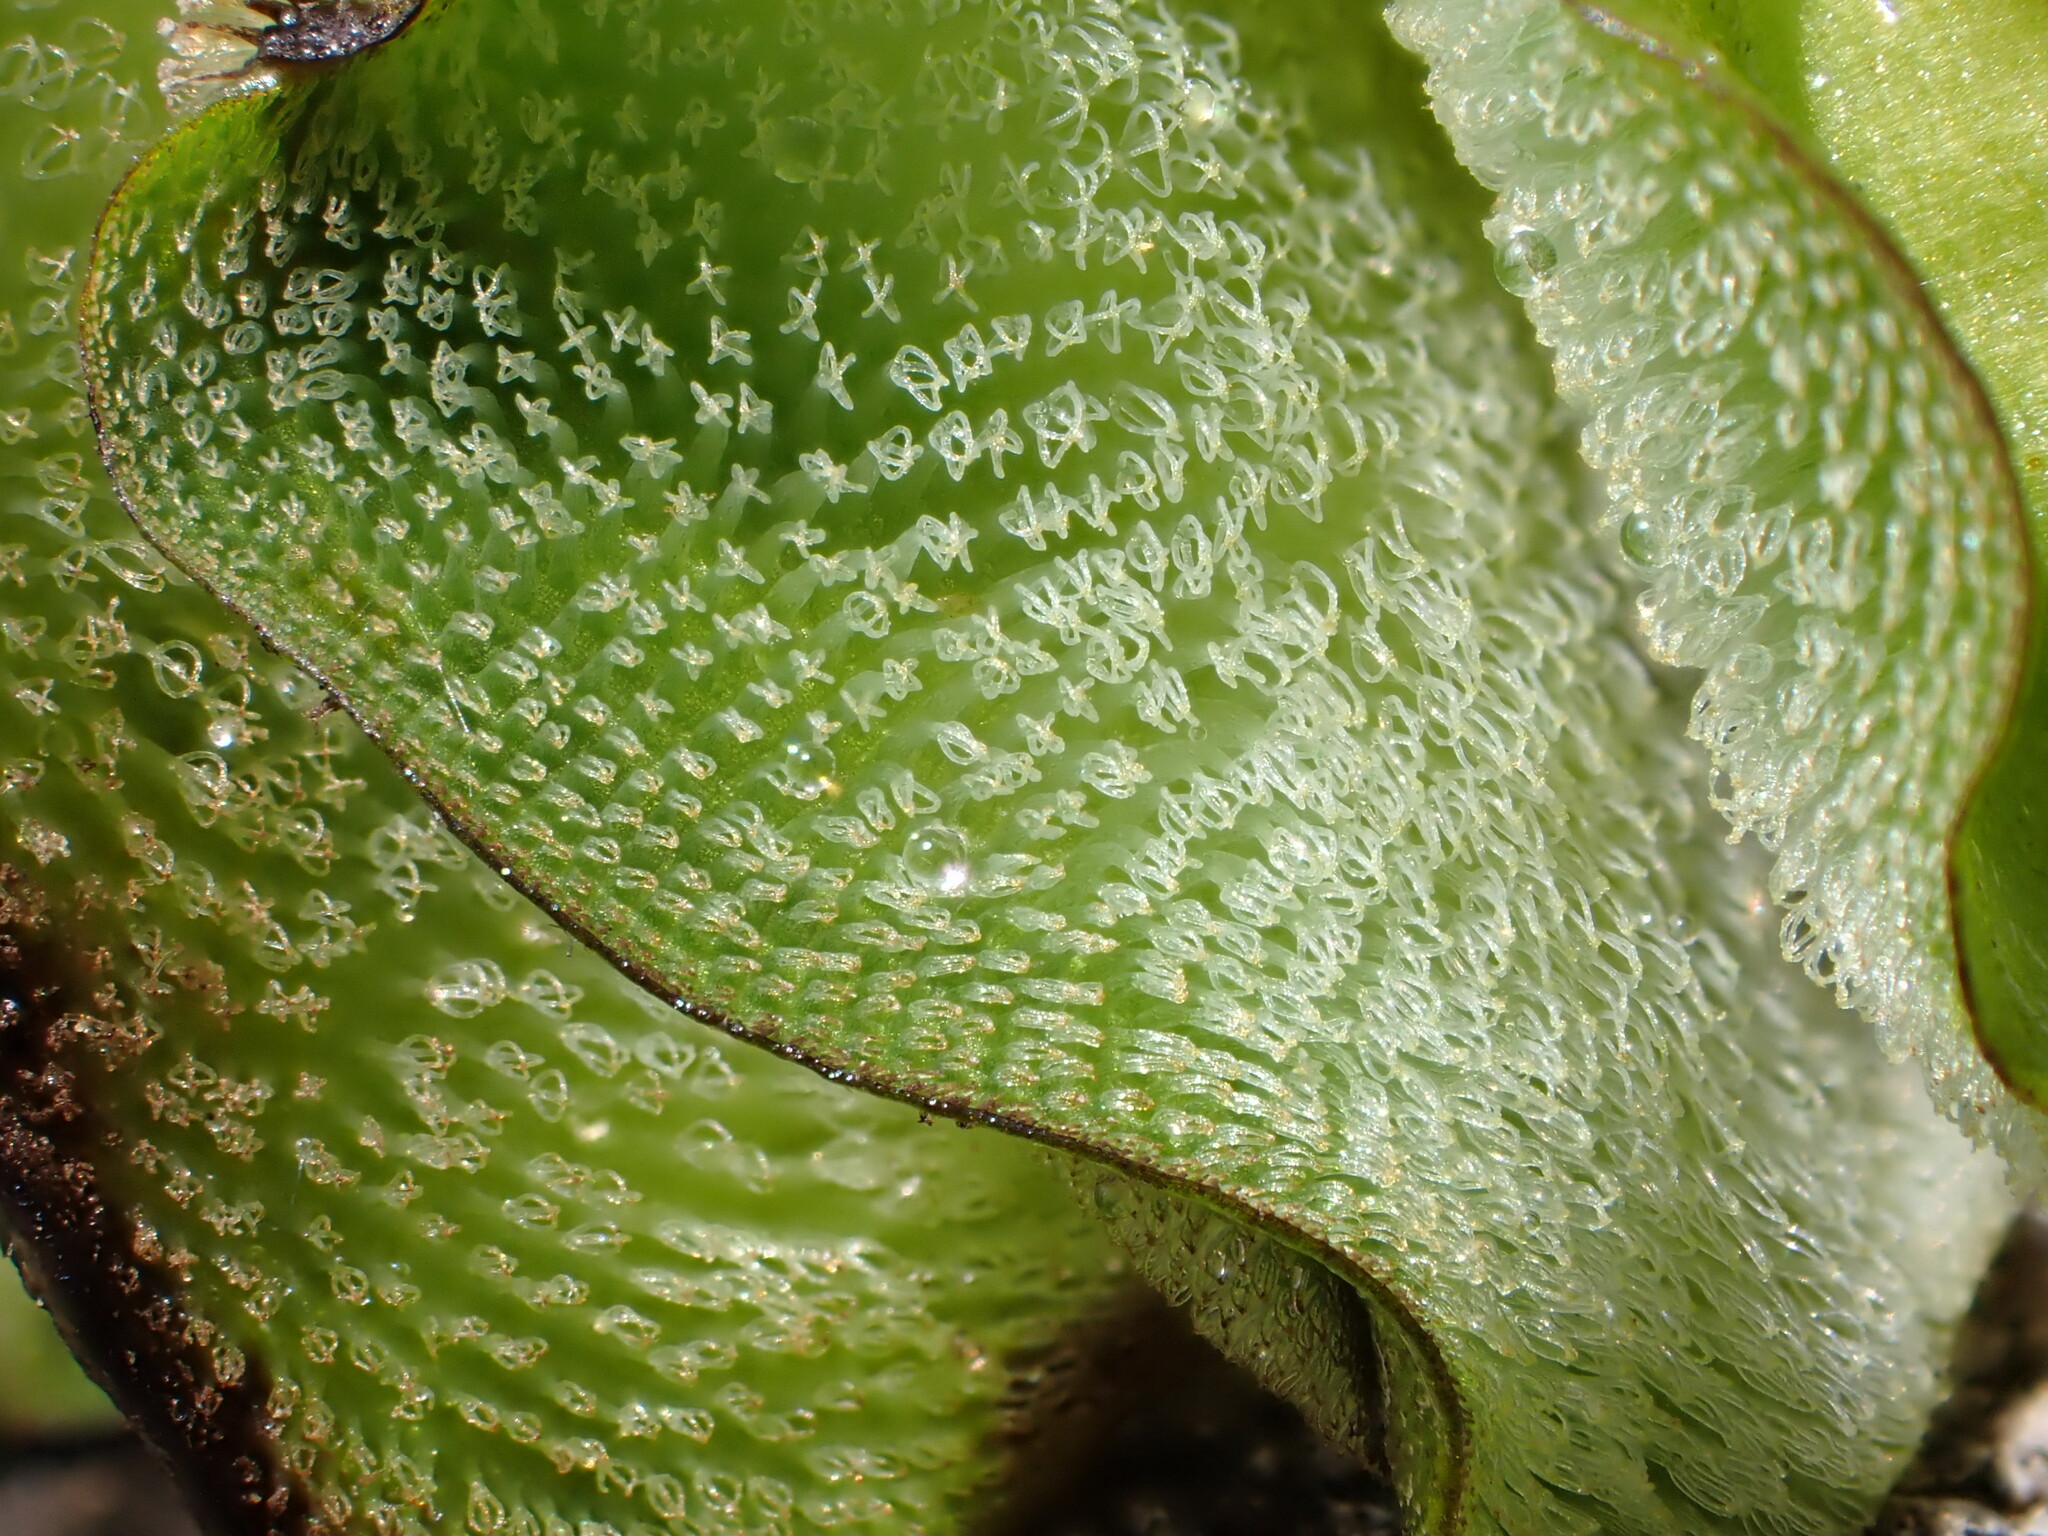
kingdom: Plantae
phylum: Tracheophyta
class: Polypodiopsida
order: Salviniales
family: Salviniaceae
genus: Salvinia
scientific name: Salvinia molesta
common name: Kariba weed
